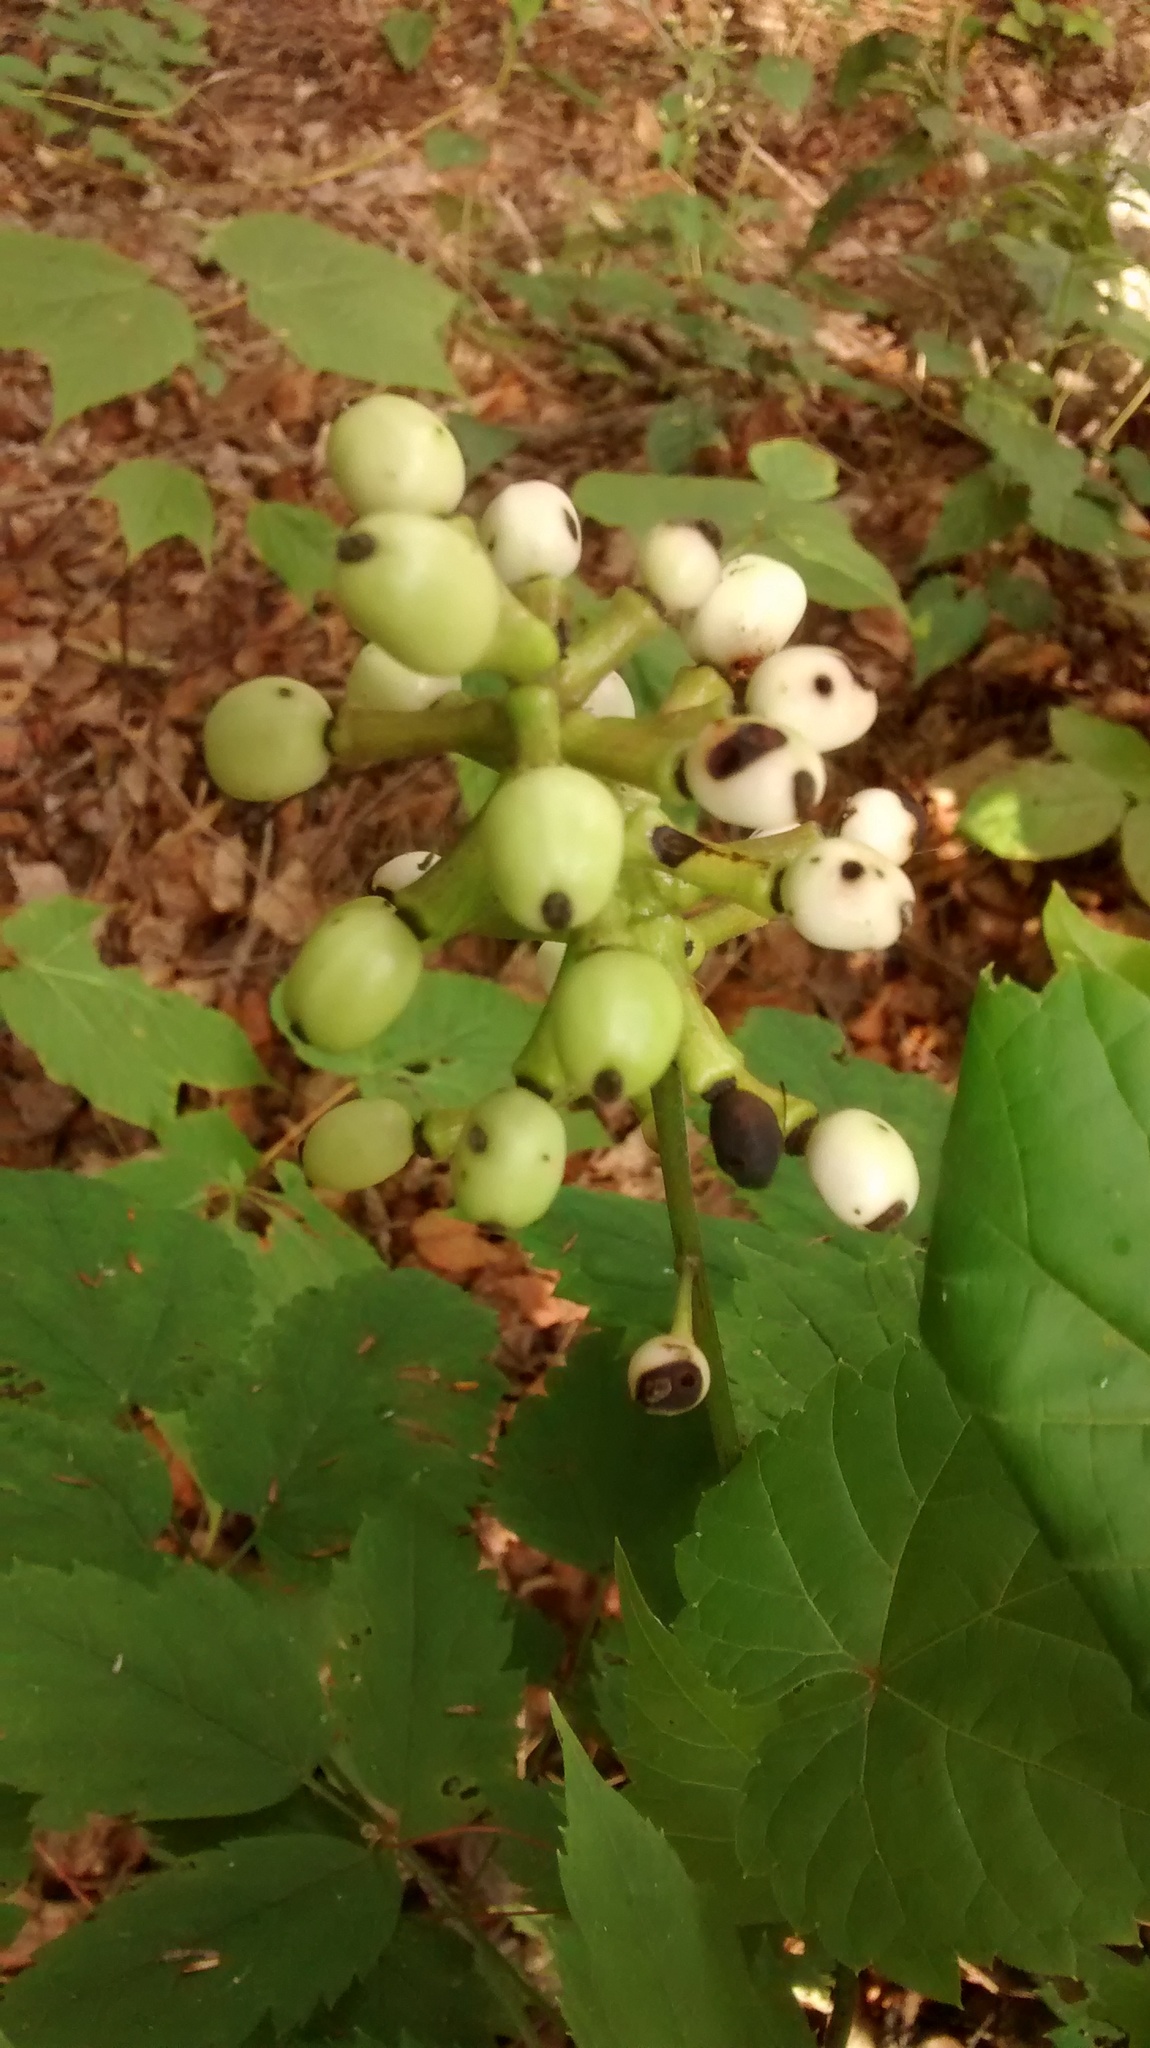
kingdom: Plantae
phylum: Tracheophyta
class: Magnoliopsida
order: Ranunculales
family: Ranunculaceae
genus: Actaea
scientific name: Actaea pachypoda
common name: Doll's-eyes
